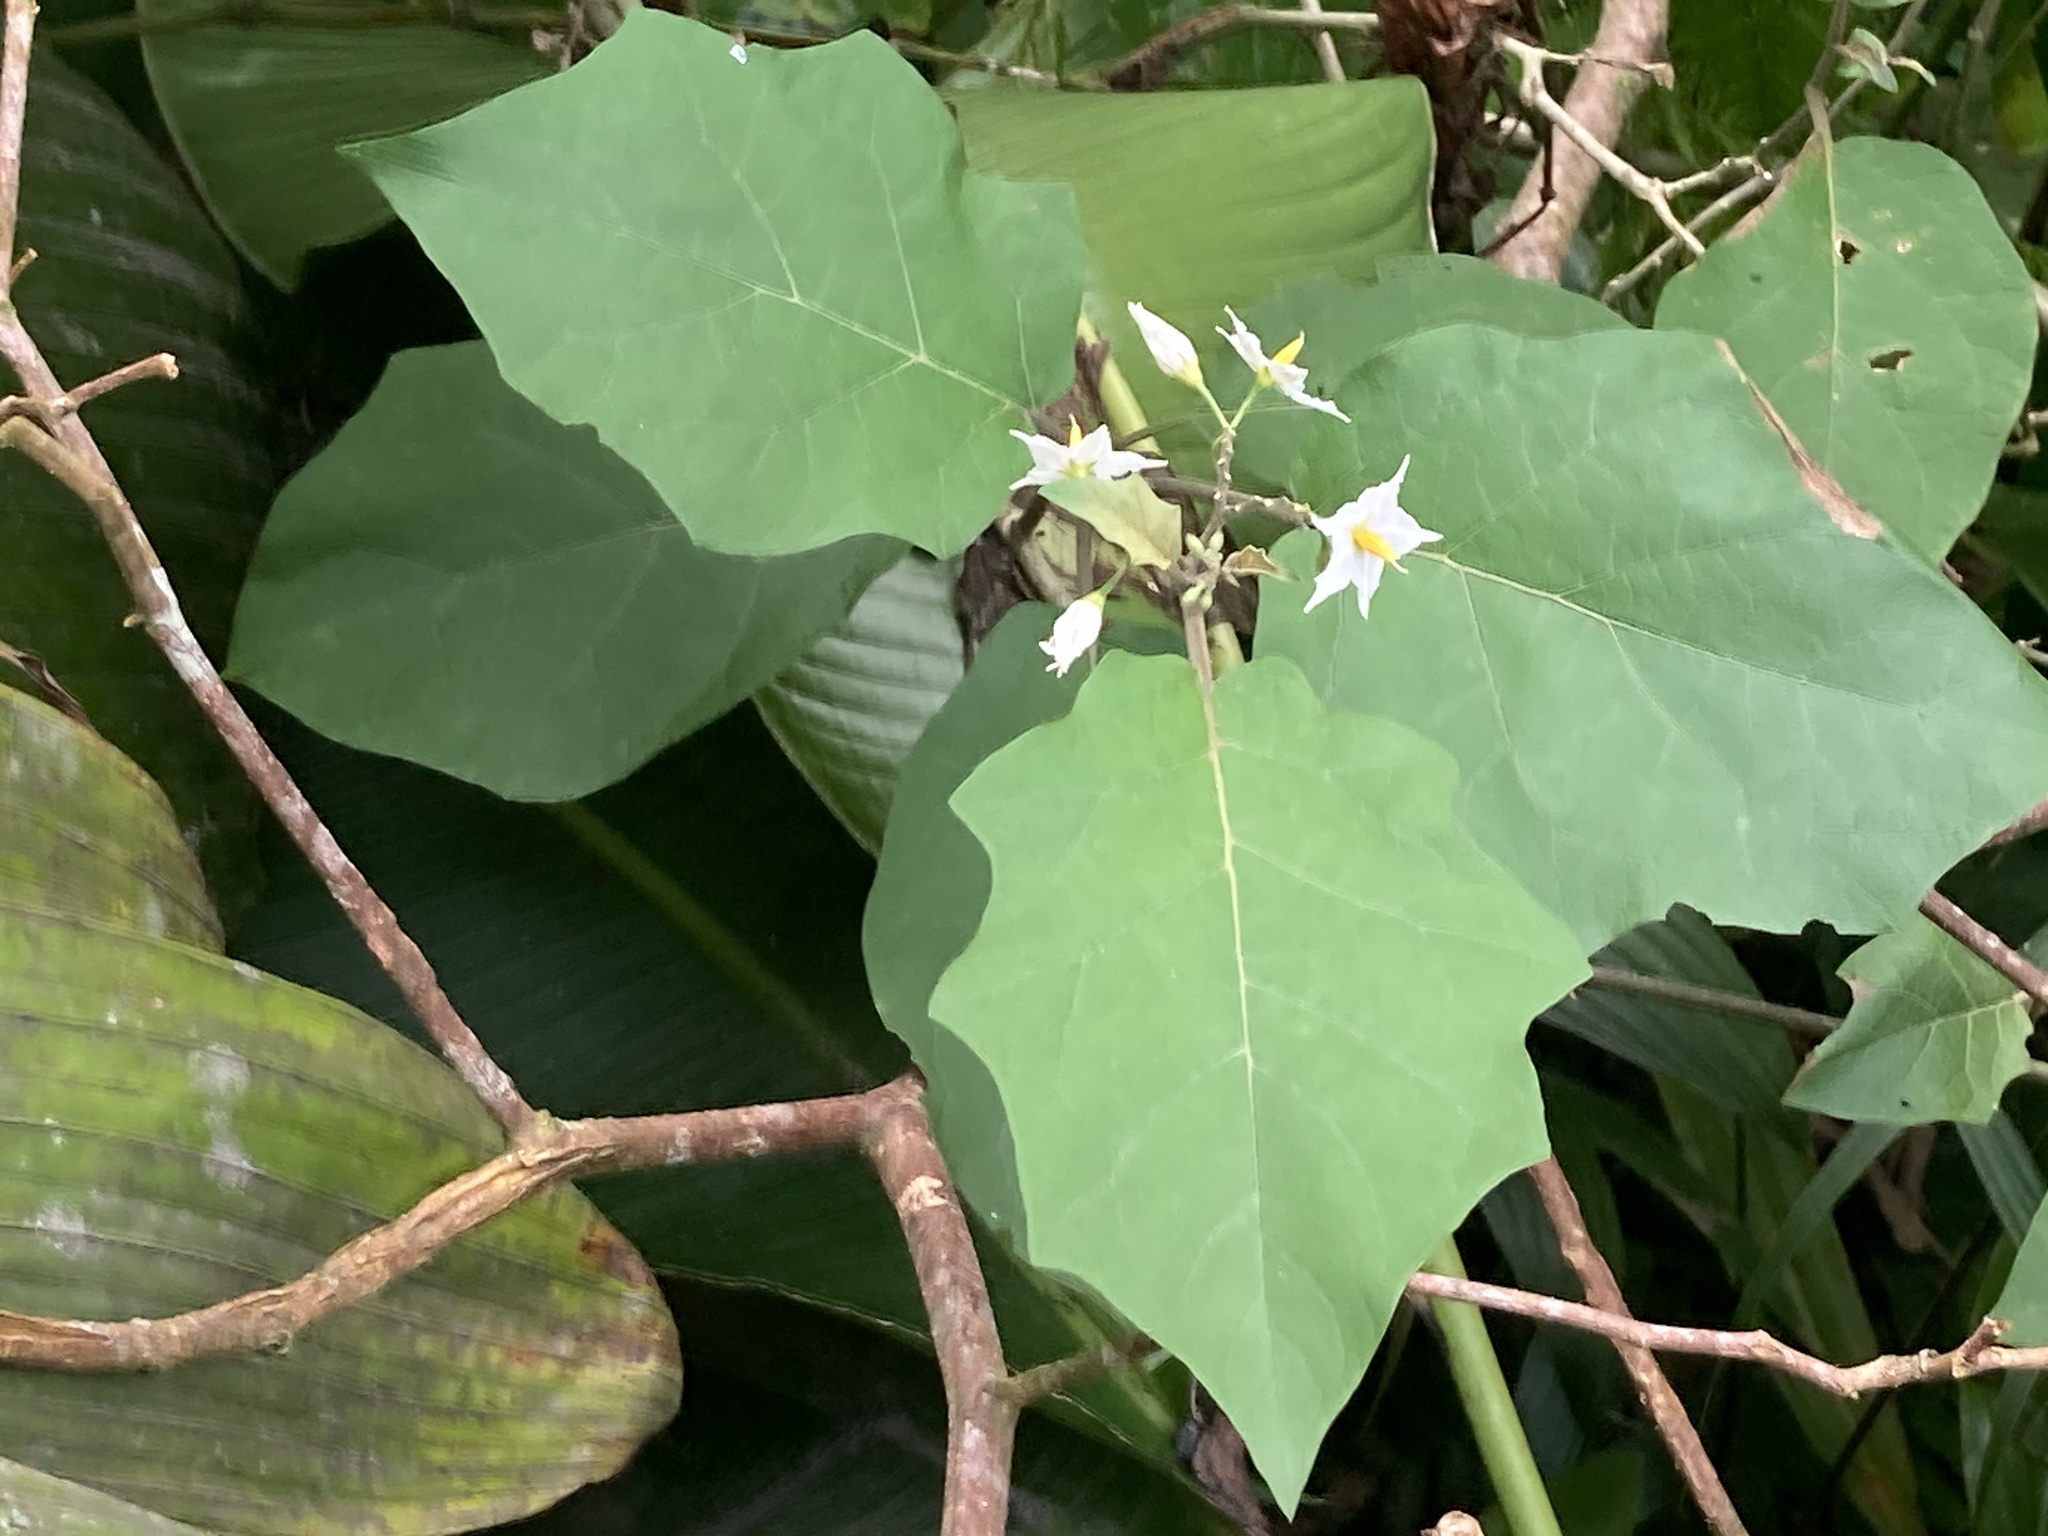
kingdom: Plantae
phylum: Tracheophyta
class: Magnoliopsida
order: Solanales
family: Solanaceae
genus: Solanum
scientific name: Solanum torvum
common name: Turkey berry
